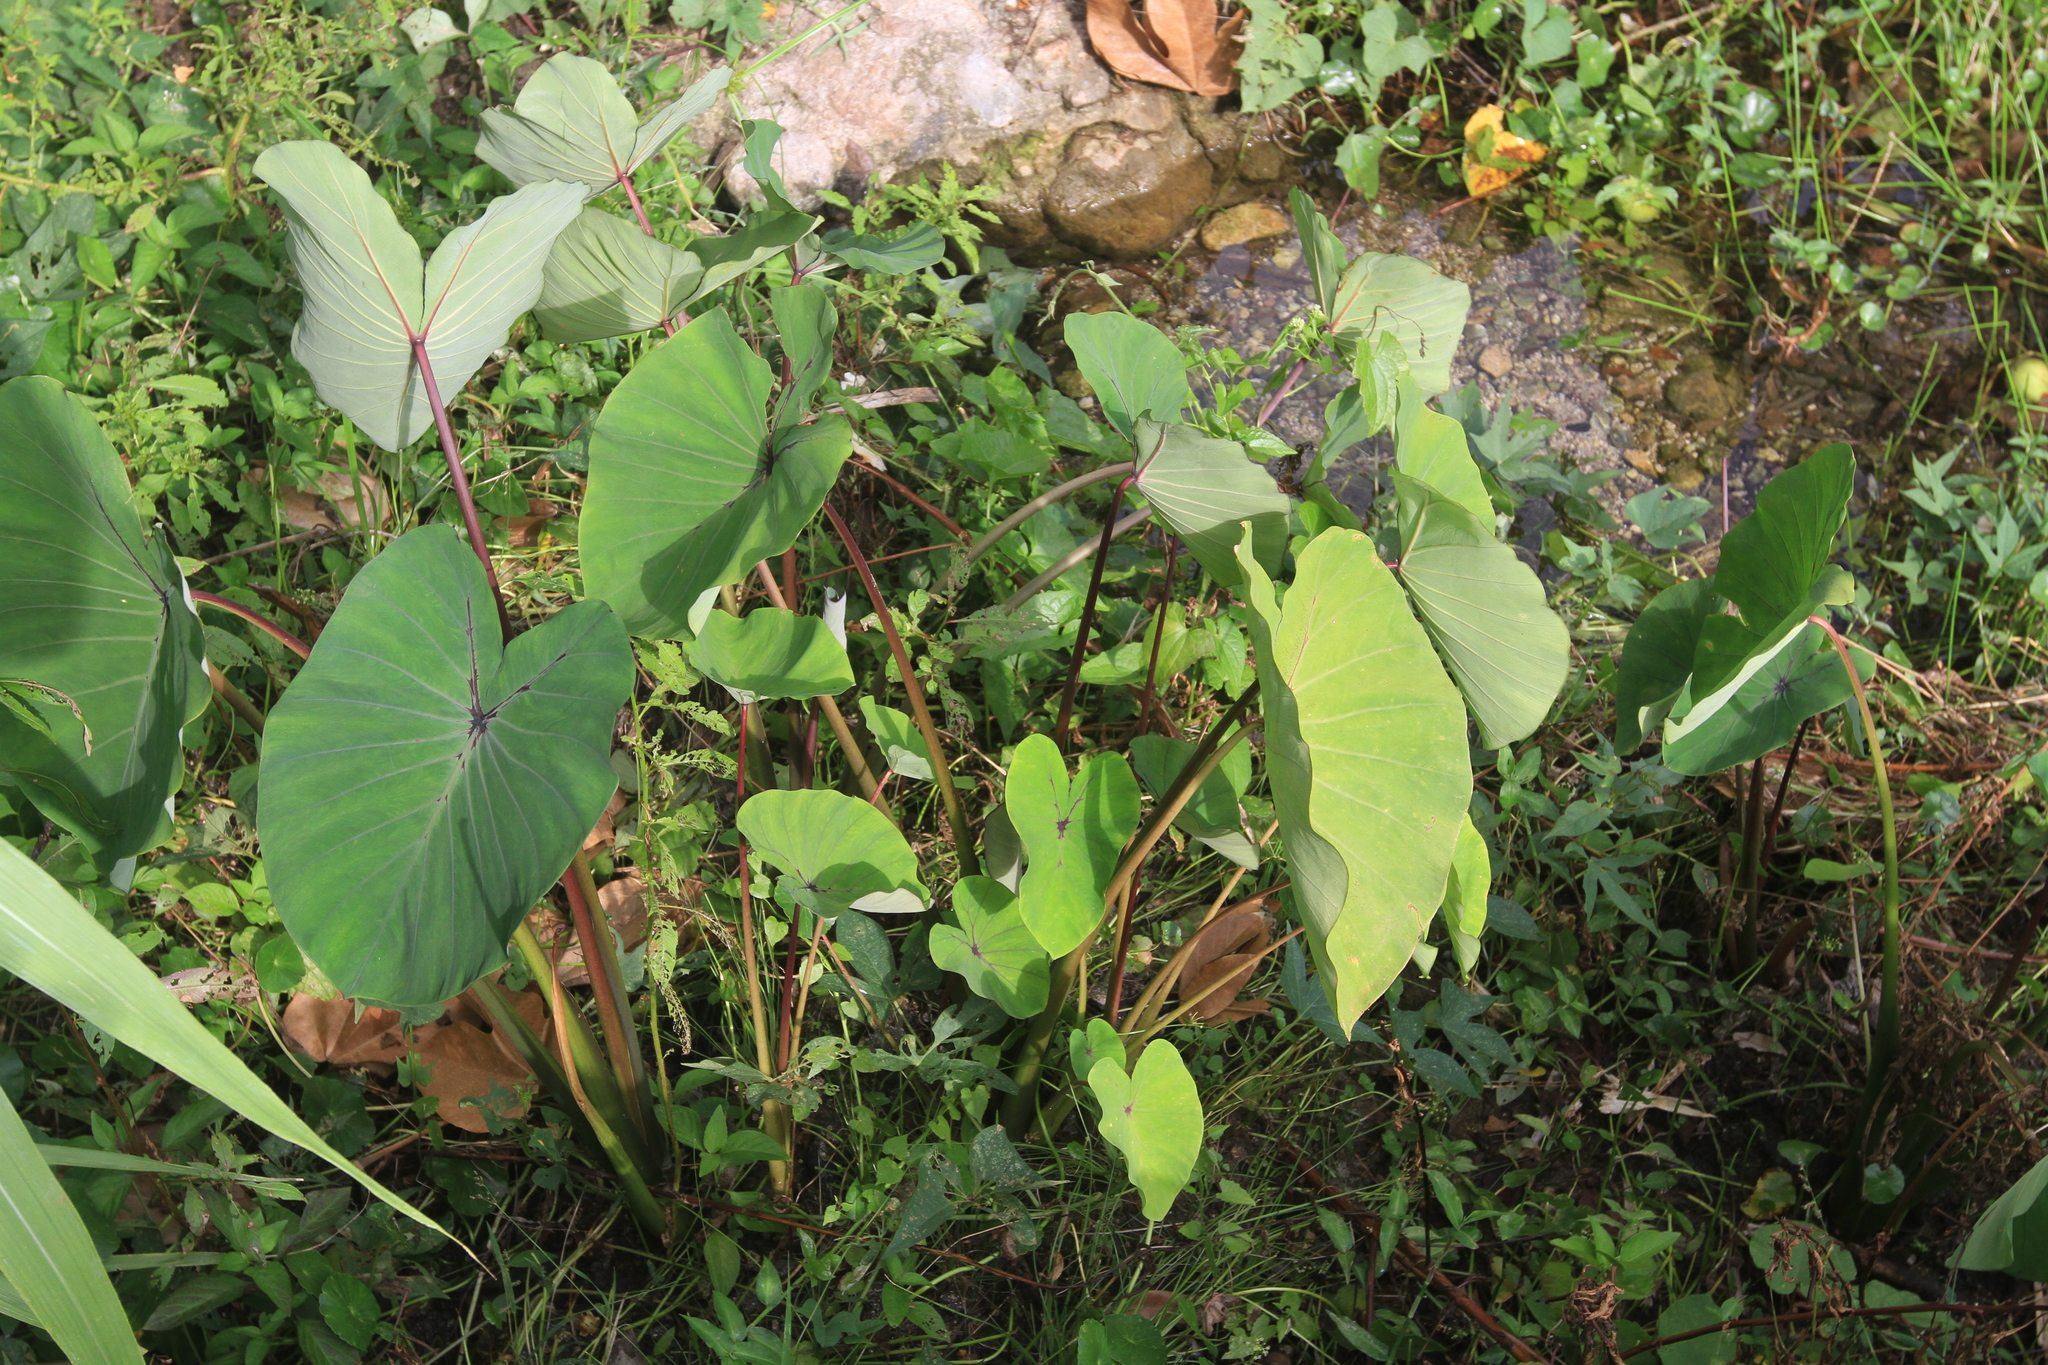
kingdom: Plantae
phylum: Tracheophyta
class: Liliopsida
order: Alismatales
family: Araceae
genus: Colocasia
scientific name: Colocasia esculenta
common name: Taro
